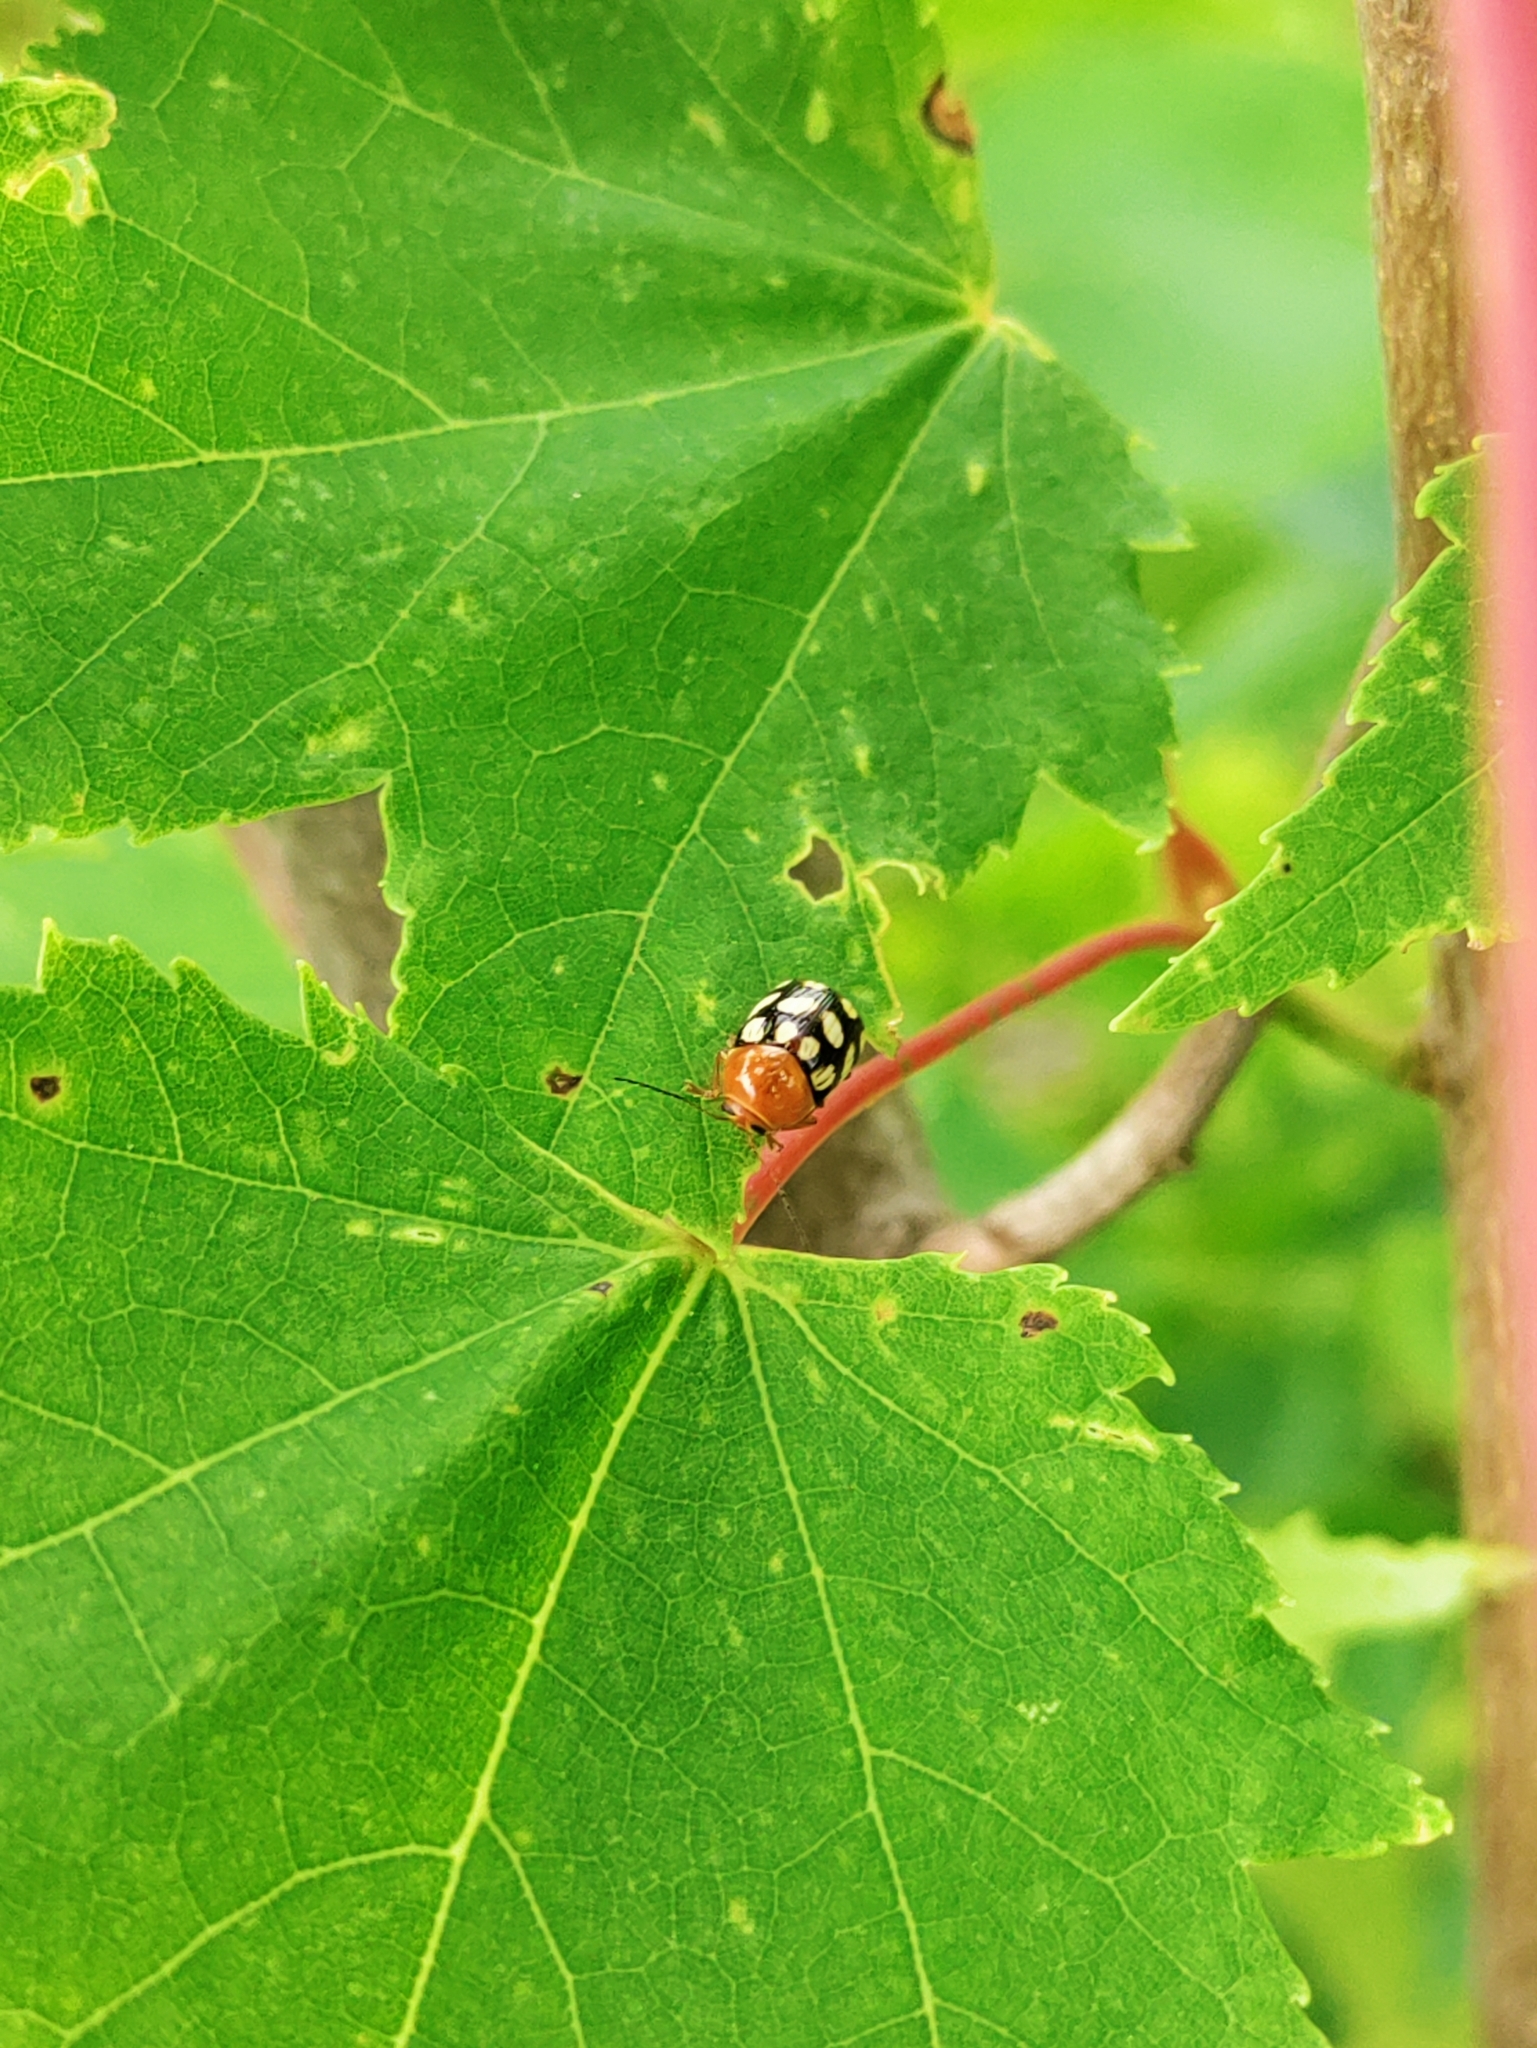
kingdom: Animalia
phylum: Arthropoda
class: Insecta
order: Coleoptera
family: Chrysomelidae
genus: Cryptocephalus
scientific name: Cryptocephalus guttulatus
